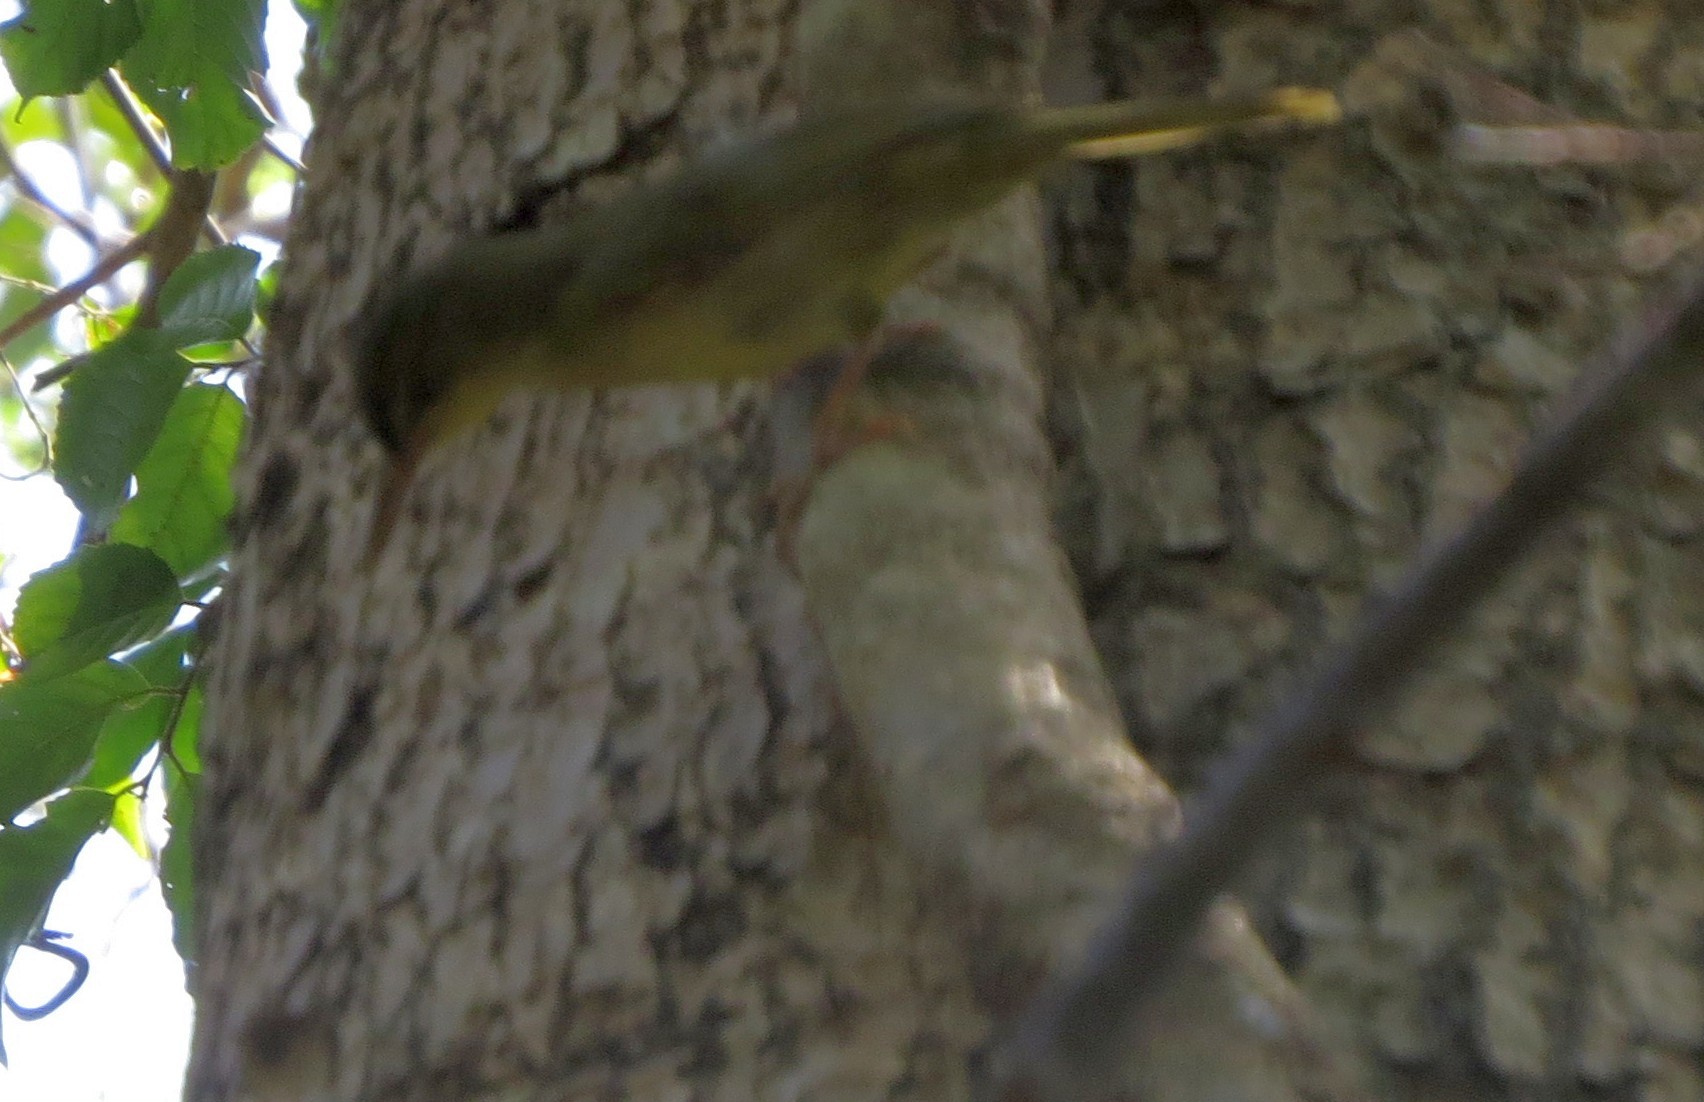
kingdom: Animalia
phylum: Chordata
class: Aves
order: Passeriformes
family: Bernieridae
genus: Bernieria
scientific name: Bernieria madagascariensis
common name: Long-billed bernieria
